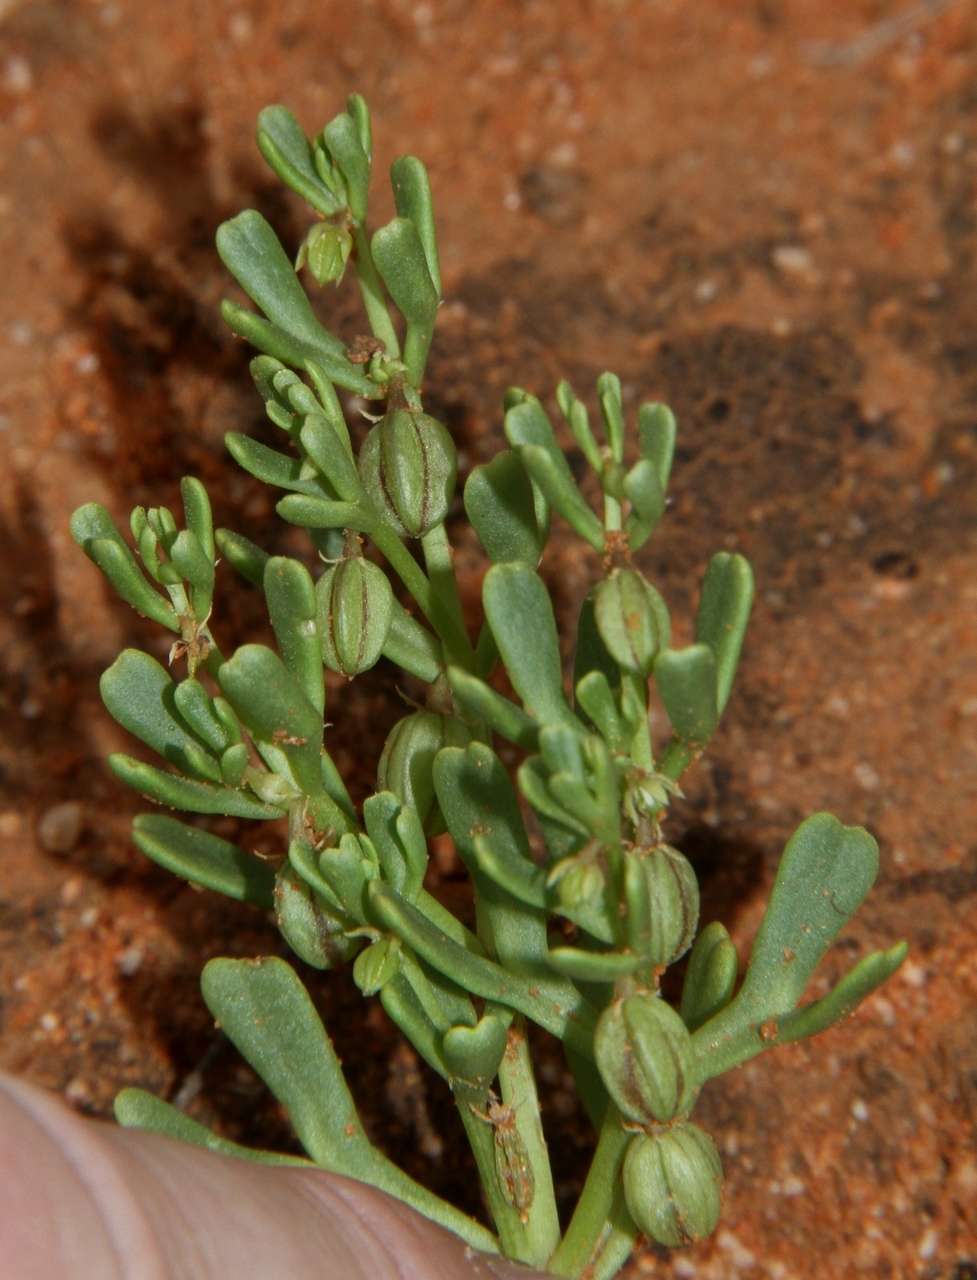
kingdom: Plantae
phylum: Tracheophyta
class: Magnoliopsida
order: Zygophyllales
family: Zygophyllaceae
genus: Roepera
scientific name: Roepera ovata
